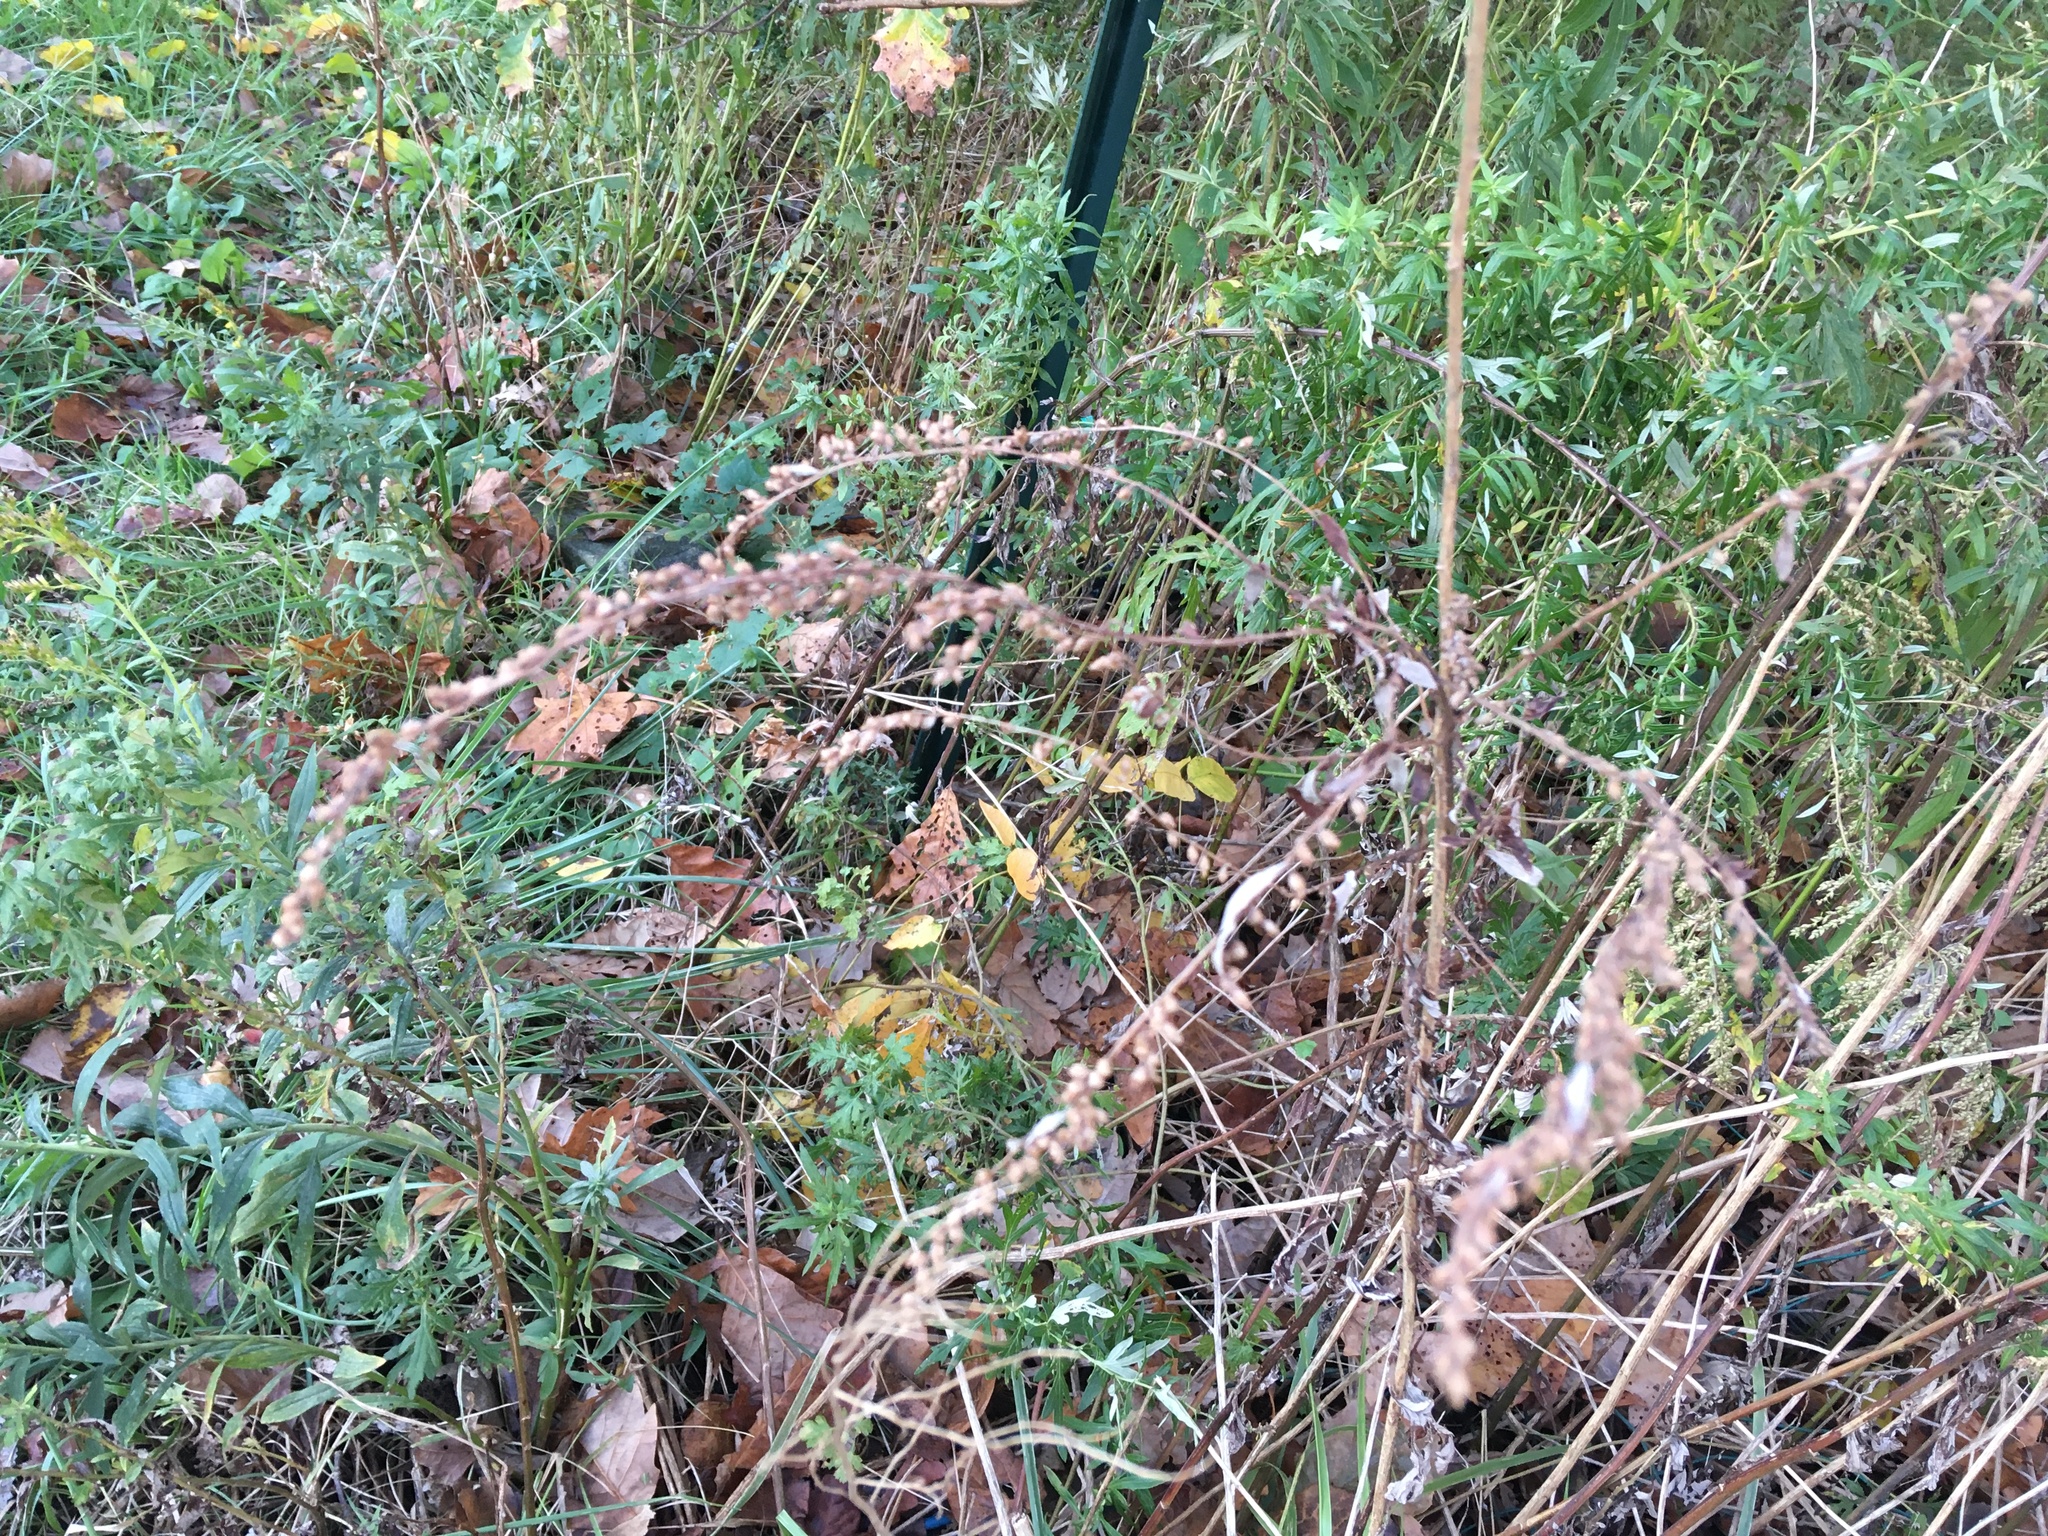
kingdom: Plantae
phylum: Tracheophyta
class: Magnoliopsida
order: Asterales
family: Asteraceae
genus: Artemisia
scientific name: Artemisia vulgaris
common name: Mugwort
